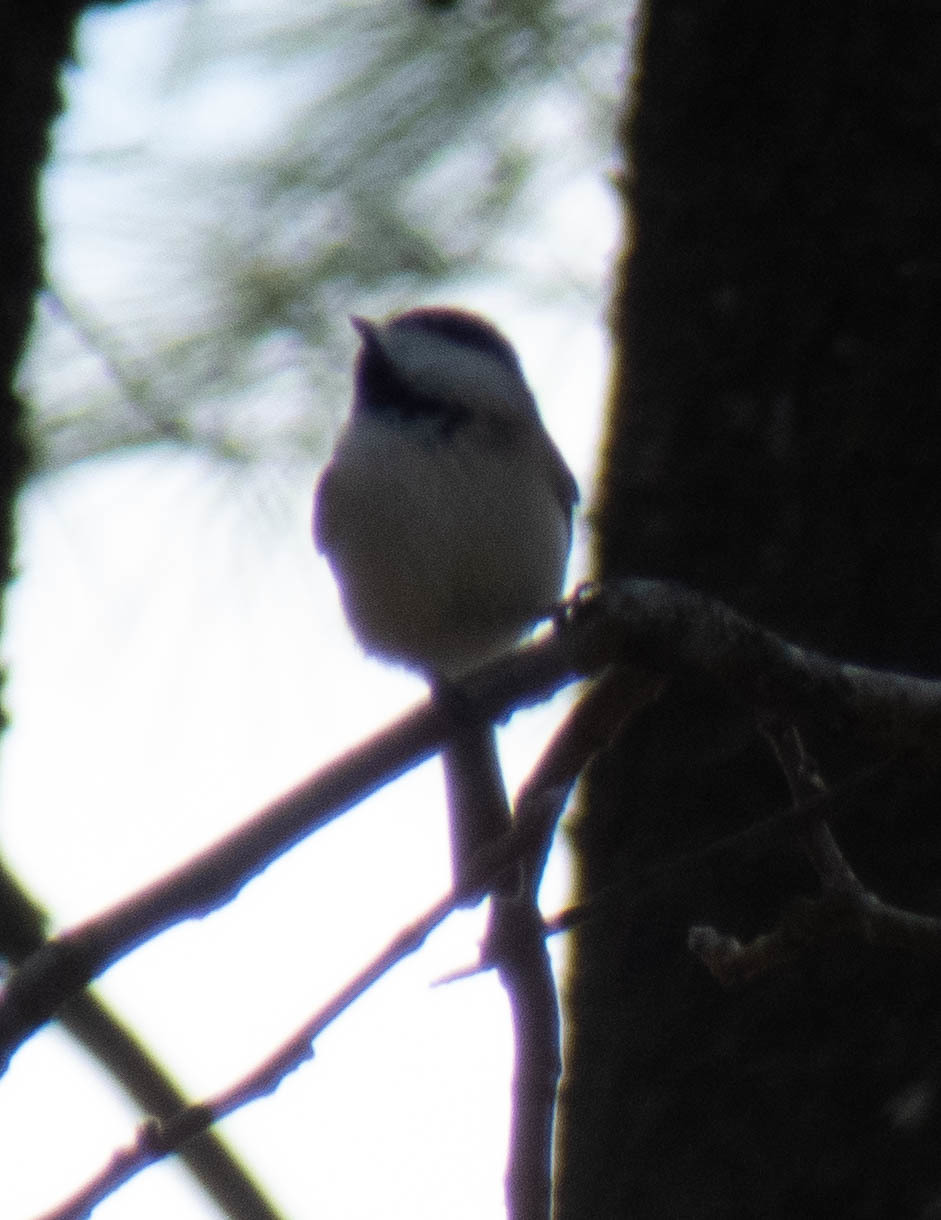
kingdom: Animalia
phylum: Chordata
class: Aves
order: Passeriformes
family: Paridae
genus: Poecile
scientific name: Poecile carolinensis
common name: Carolina chickadee
